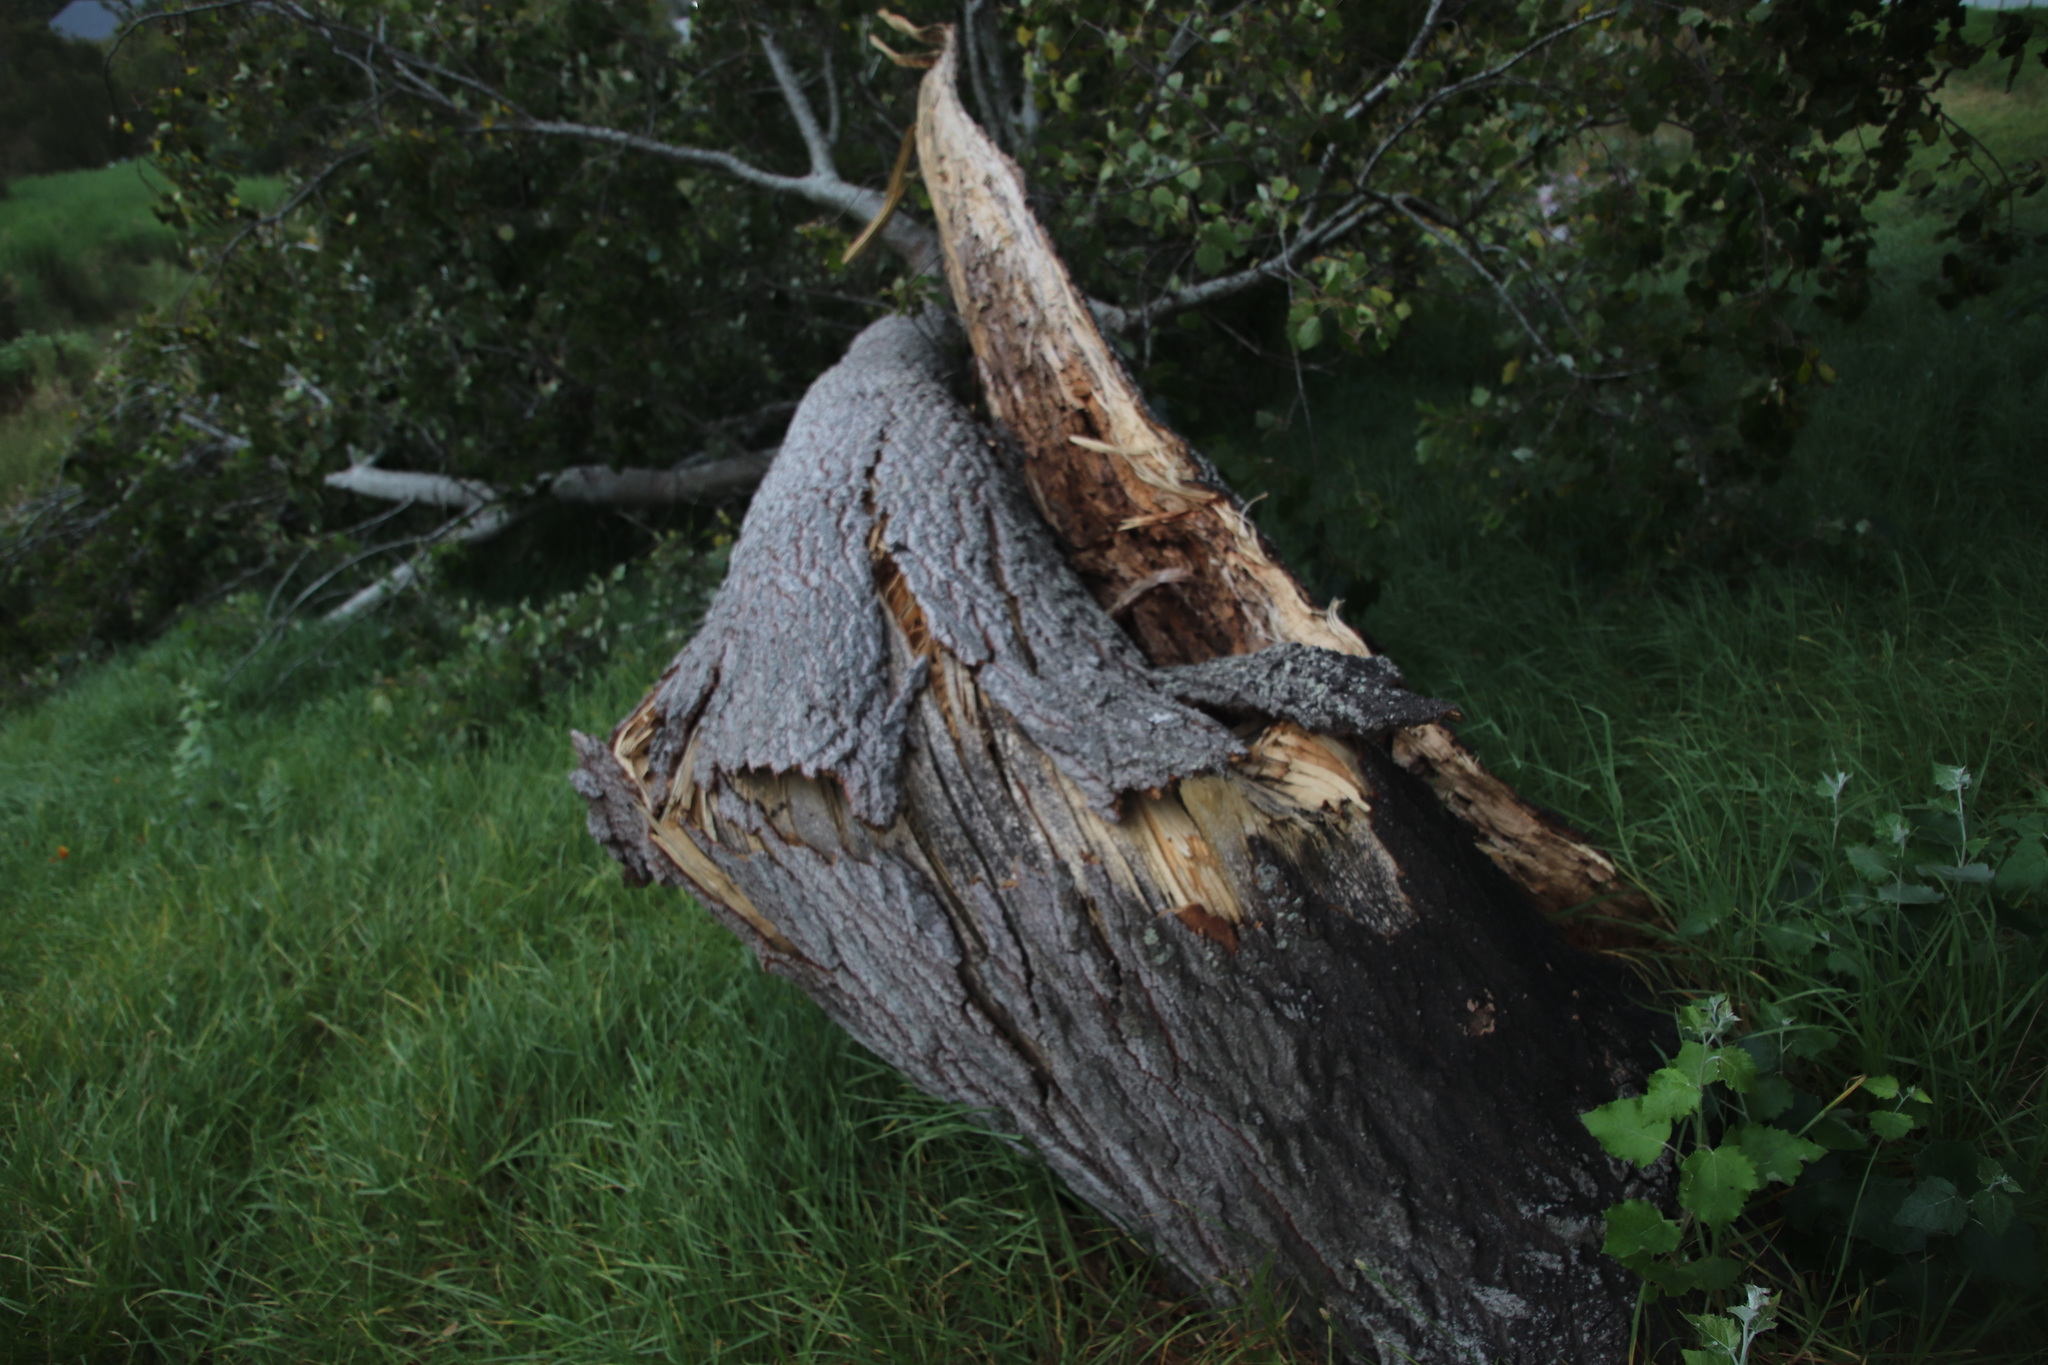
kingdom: Plantae
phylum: Tracheophyta
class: Magnoliopsida
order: Malpighiales
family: Salicaceae
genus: Populus
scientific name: Populus canescens
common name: Gray poplar
